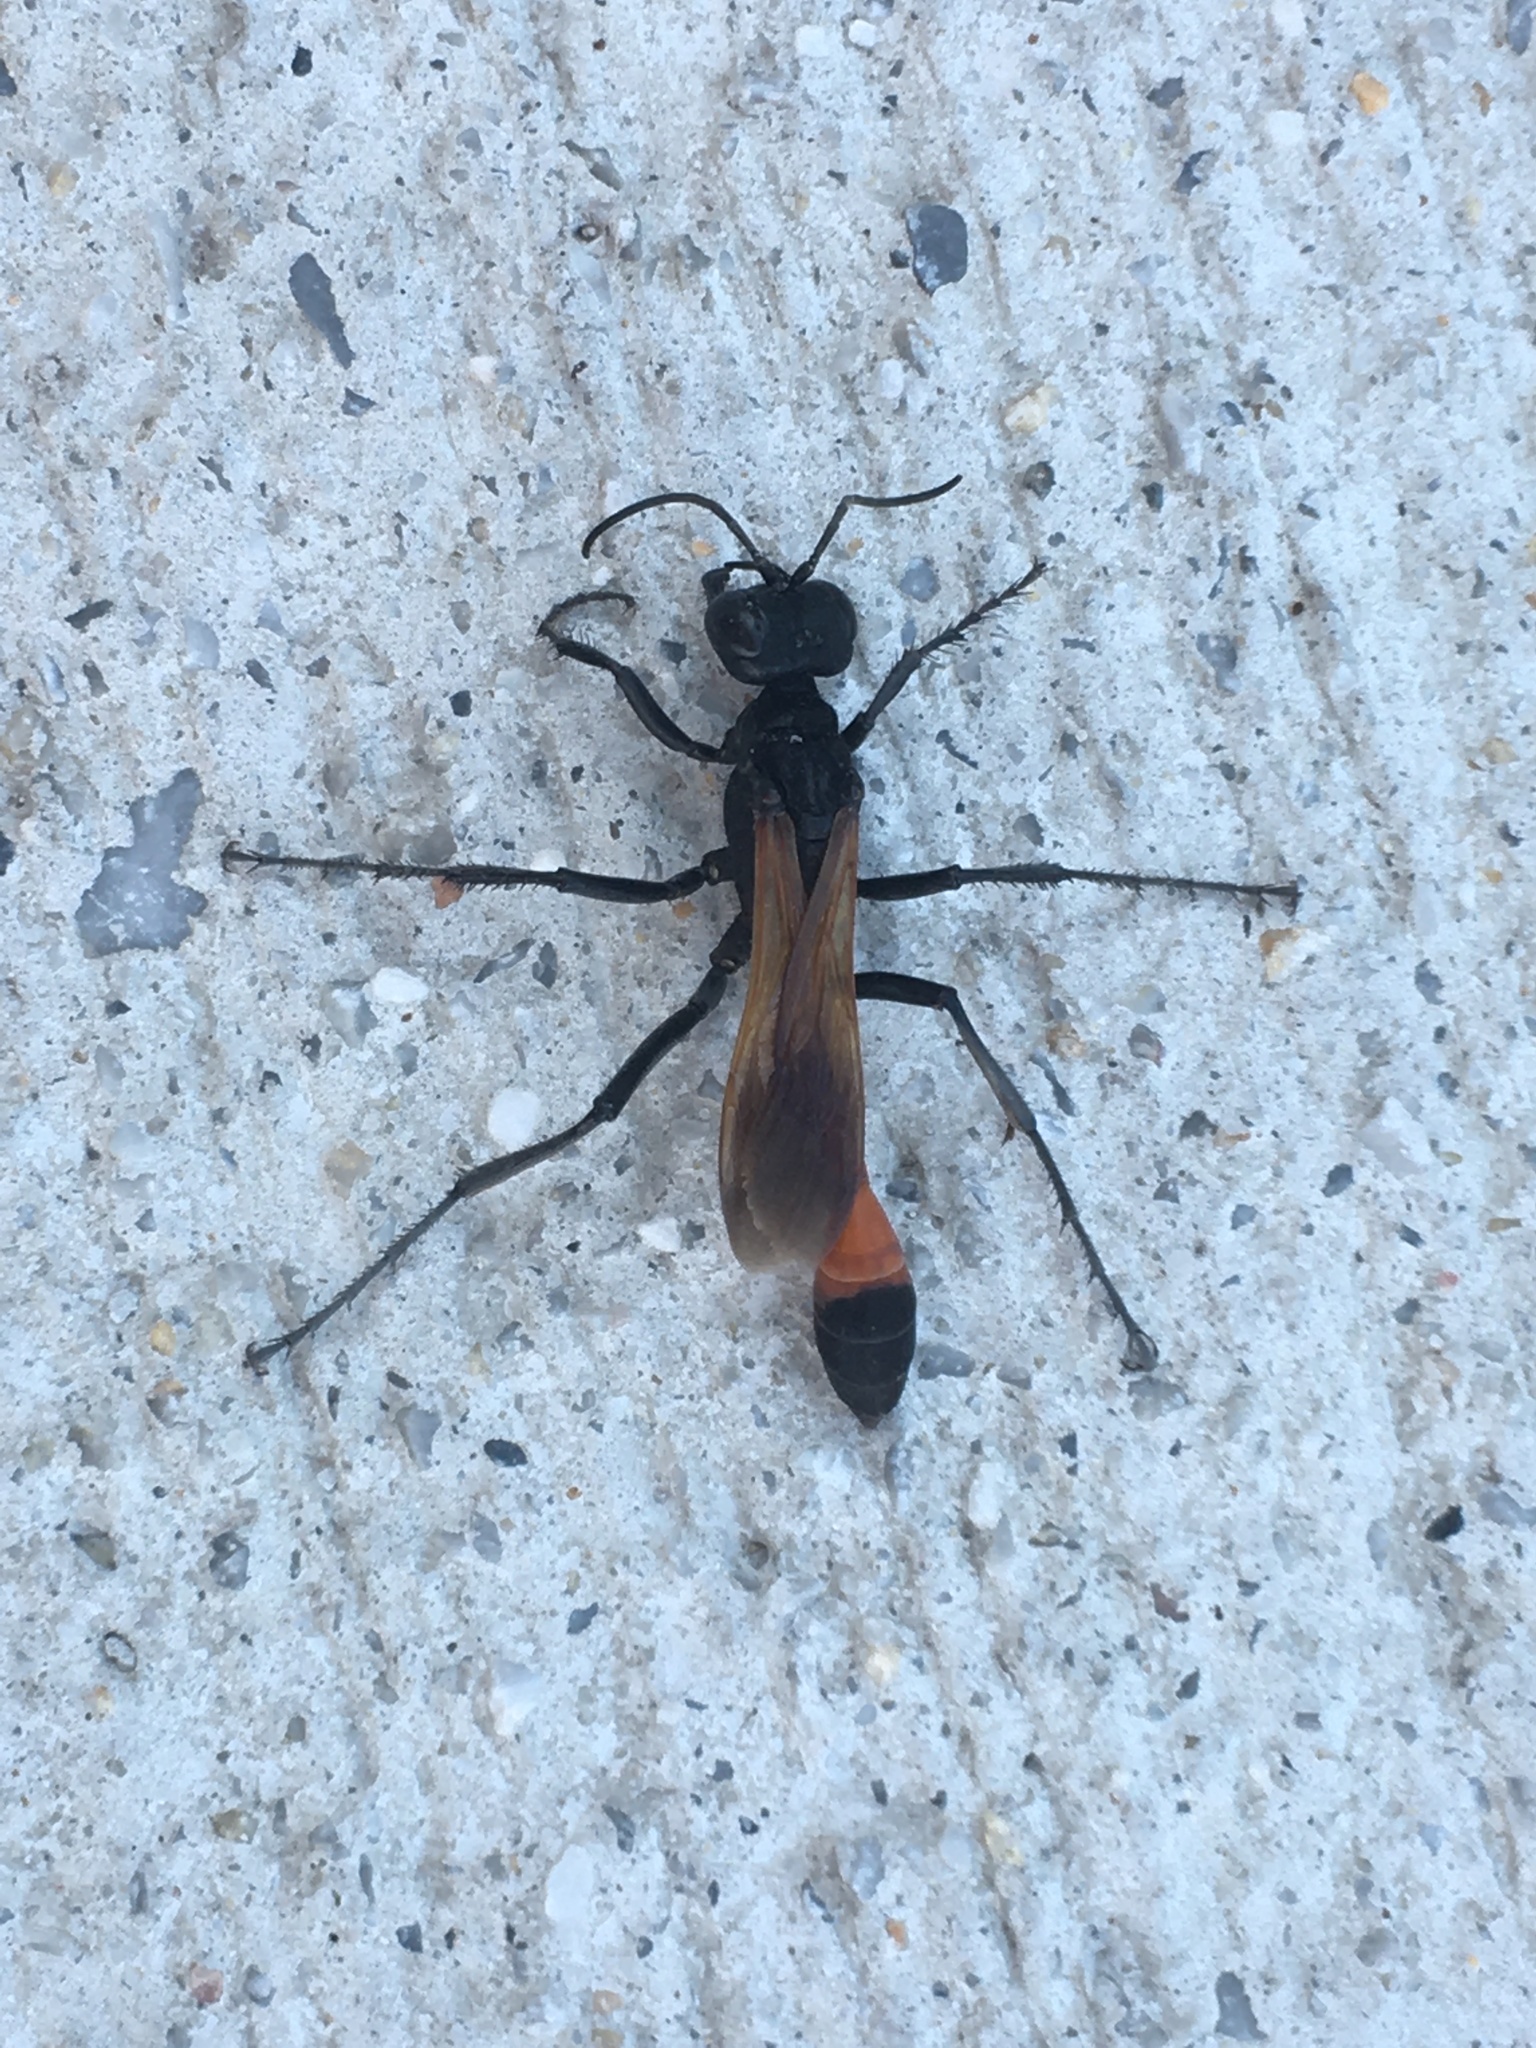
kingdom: Animalia
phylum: Arthropoda
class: Insecta
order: Hymenoptera
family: Sphecidae
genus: Ammophila
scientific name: Ammophila pictipennis
